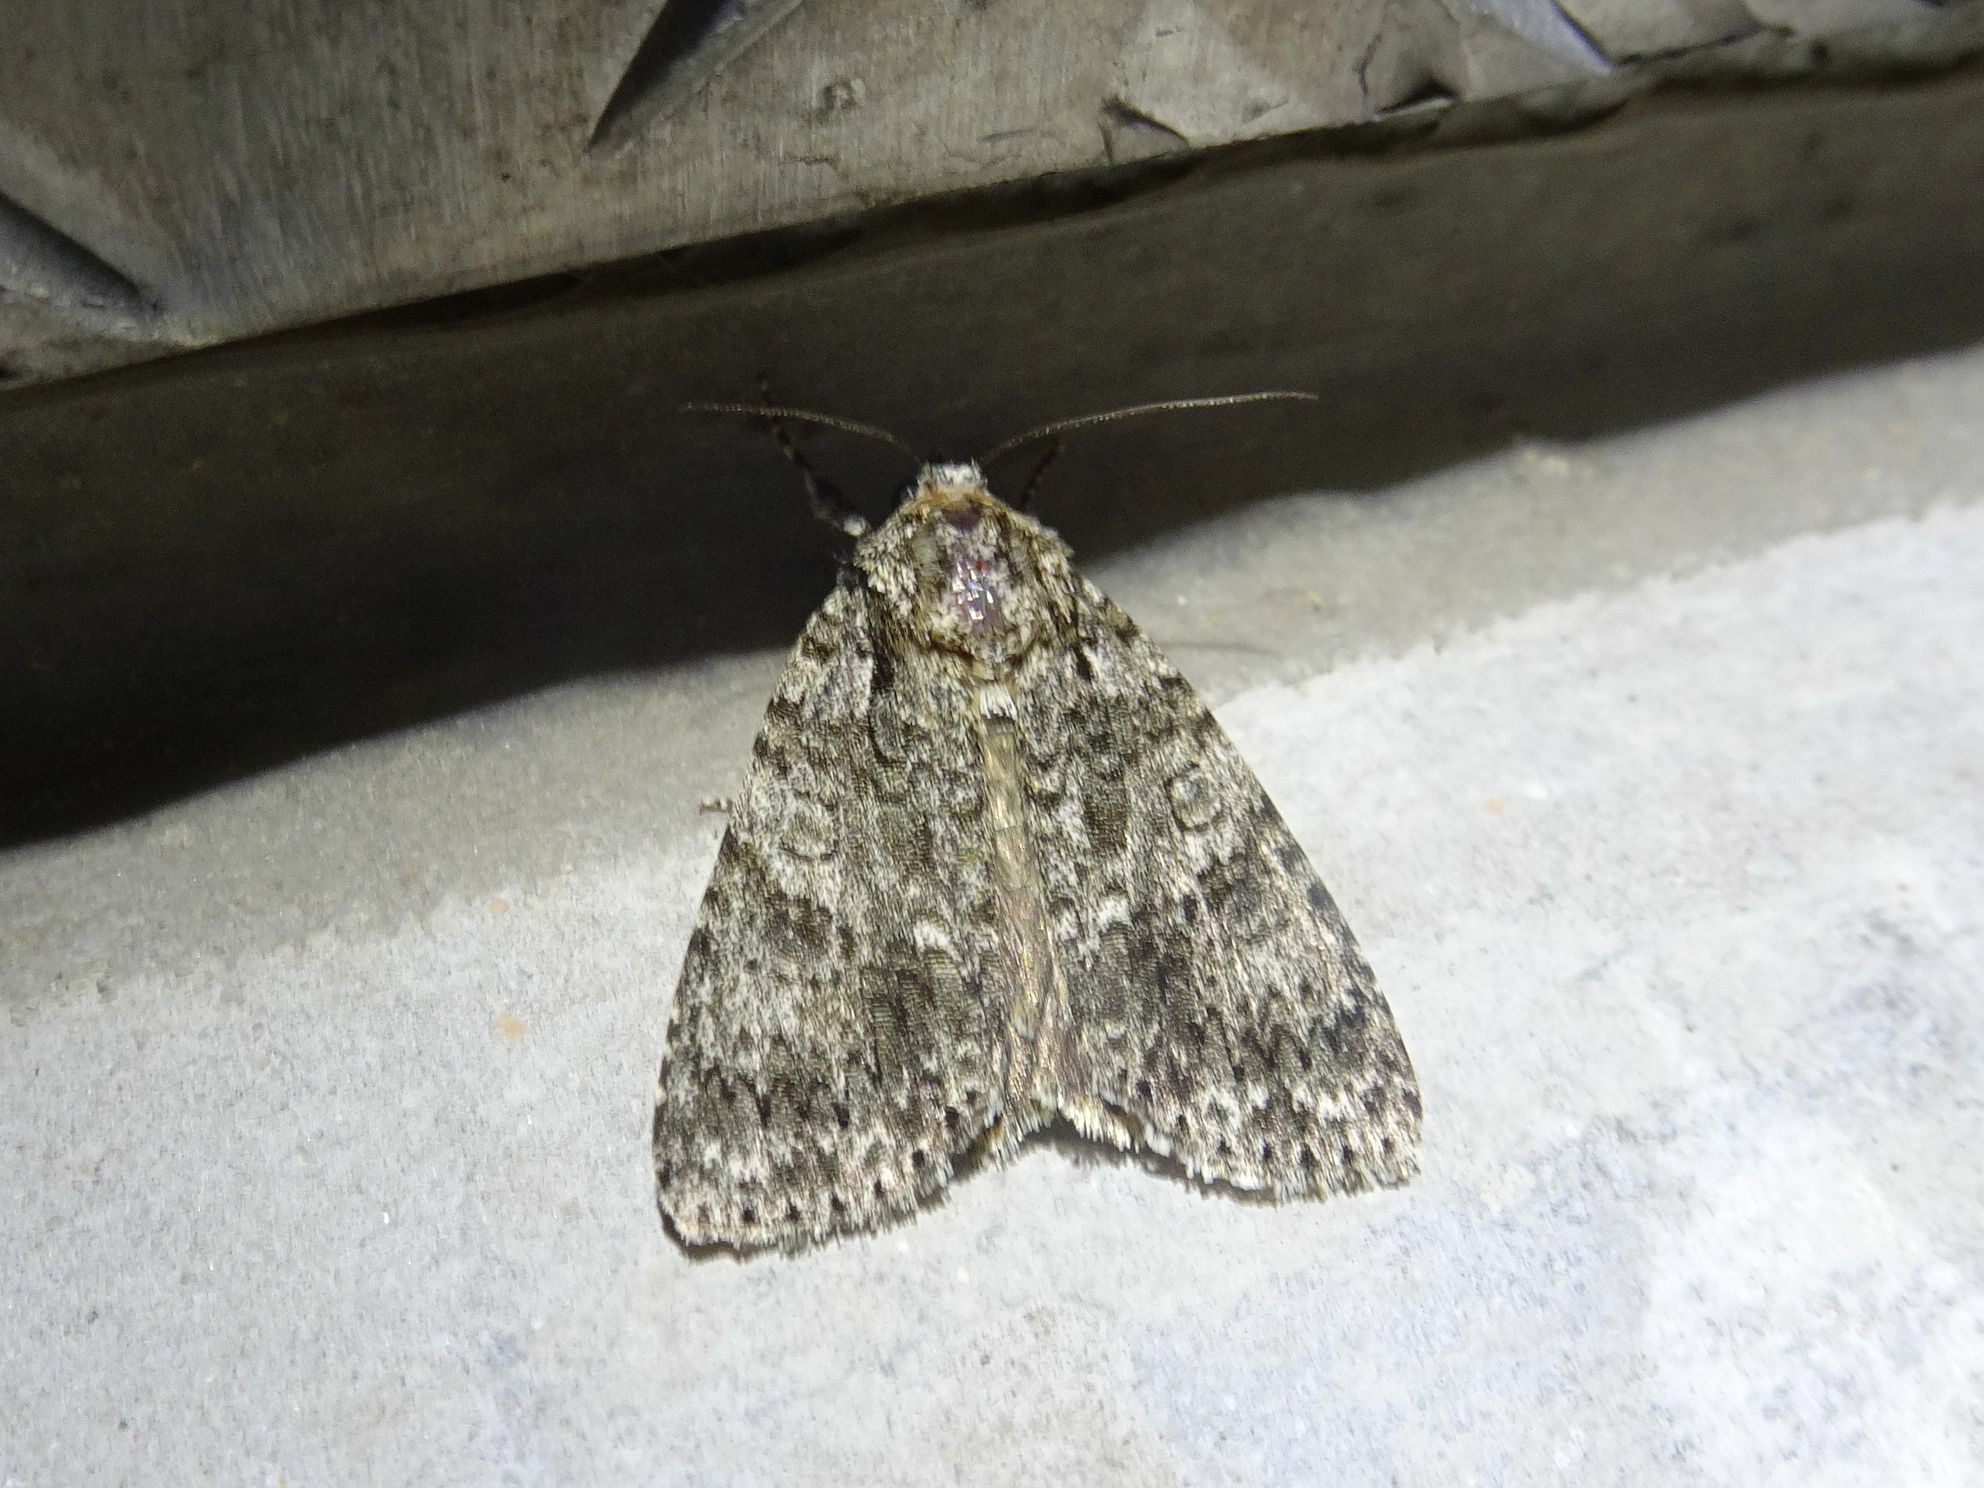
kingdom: Animalia
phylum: Arthropoda
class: Insecta
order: Lepidoptera
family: Noctuidae
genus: Acronicta
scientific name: Acronicta rumicis
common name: Knot grass
